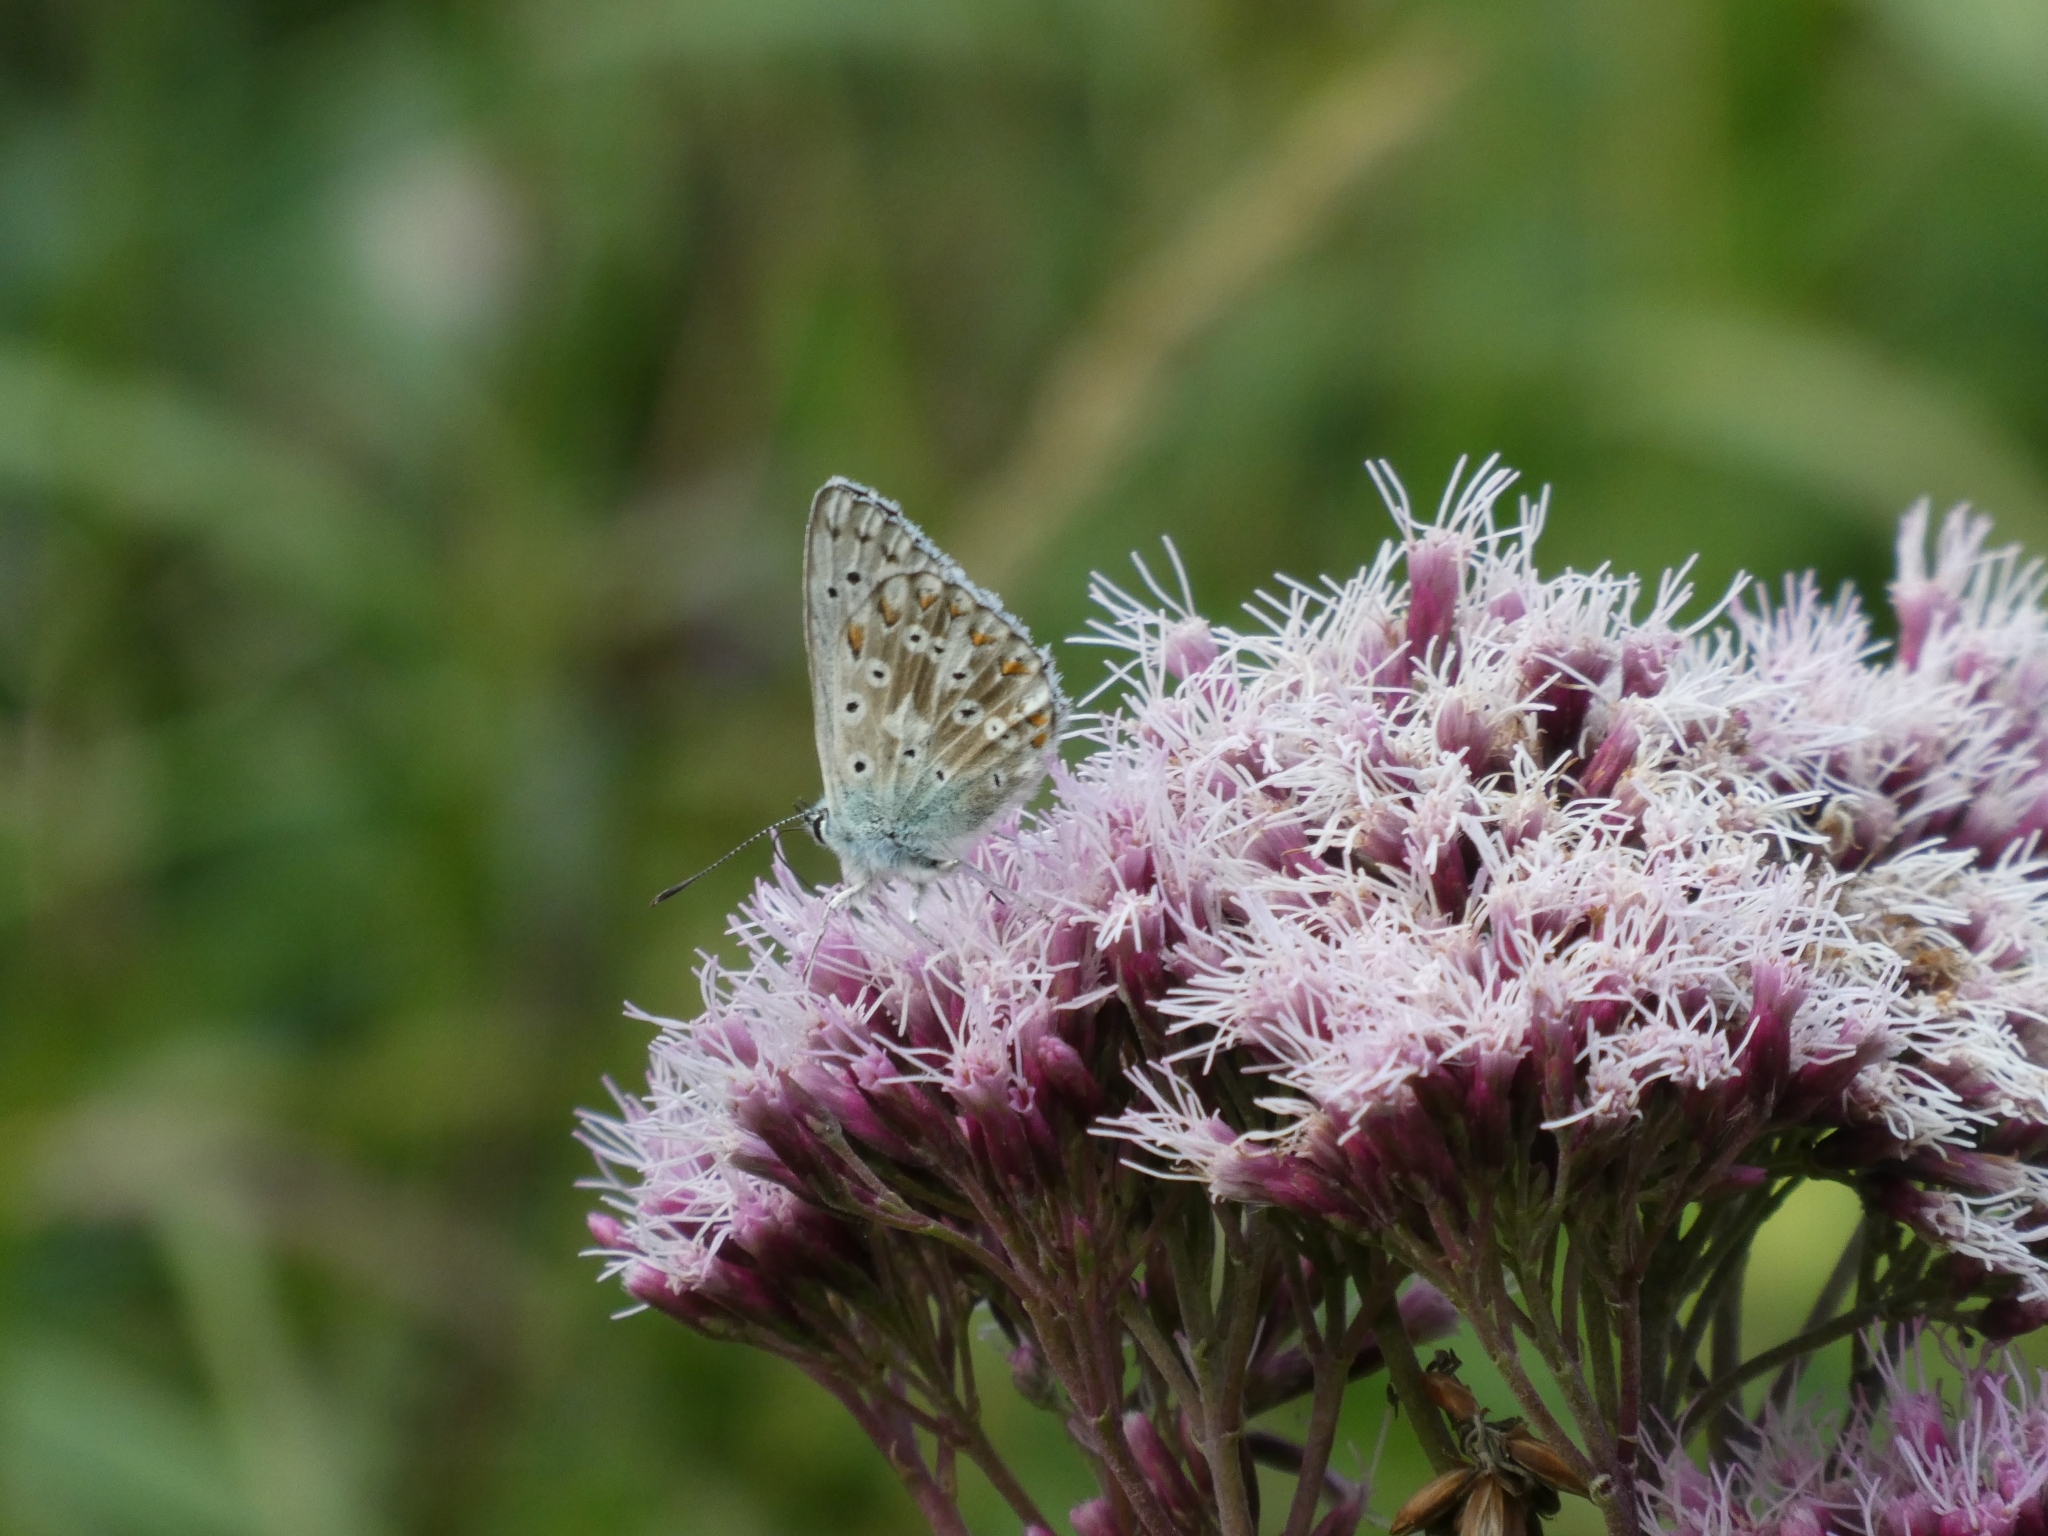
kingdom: Animalia
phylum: Arthropoda
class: Insecta
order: Lepidoptera
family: Lycaenidae
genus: Lysandra
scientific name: Lysandra coridon
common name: Chalkhill blue
